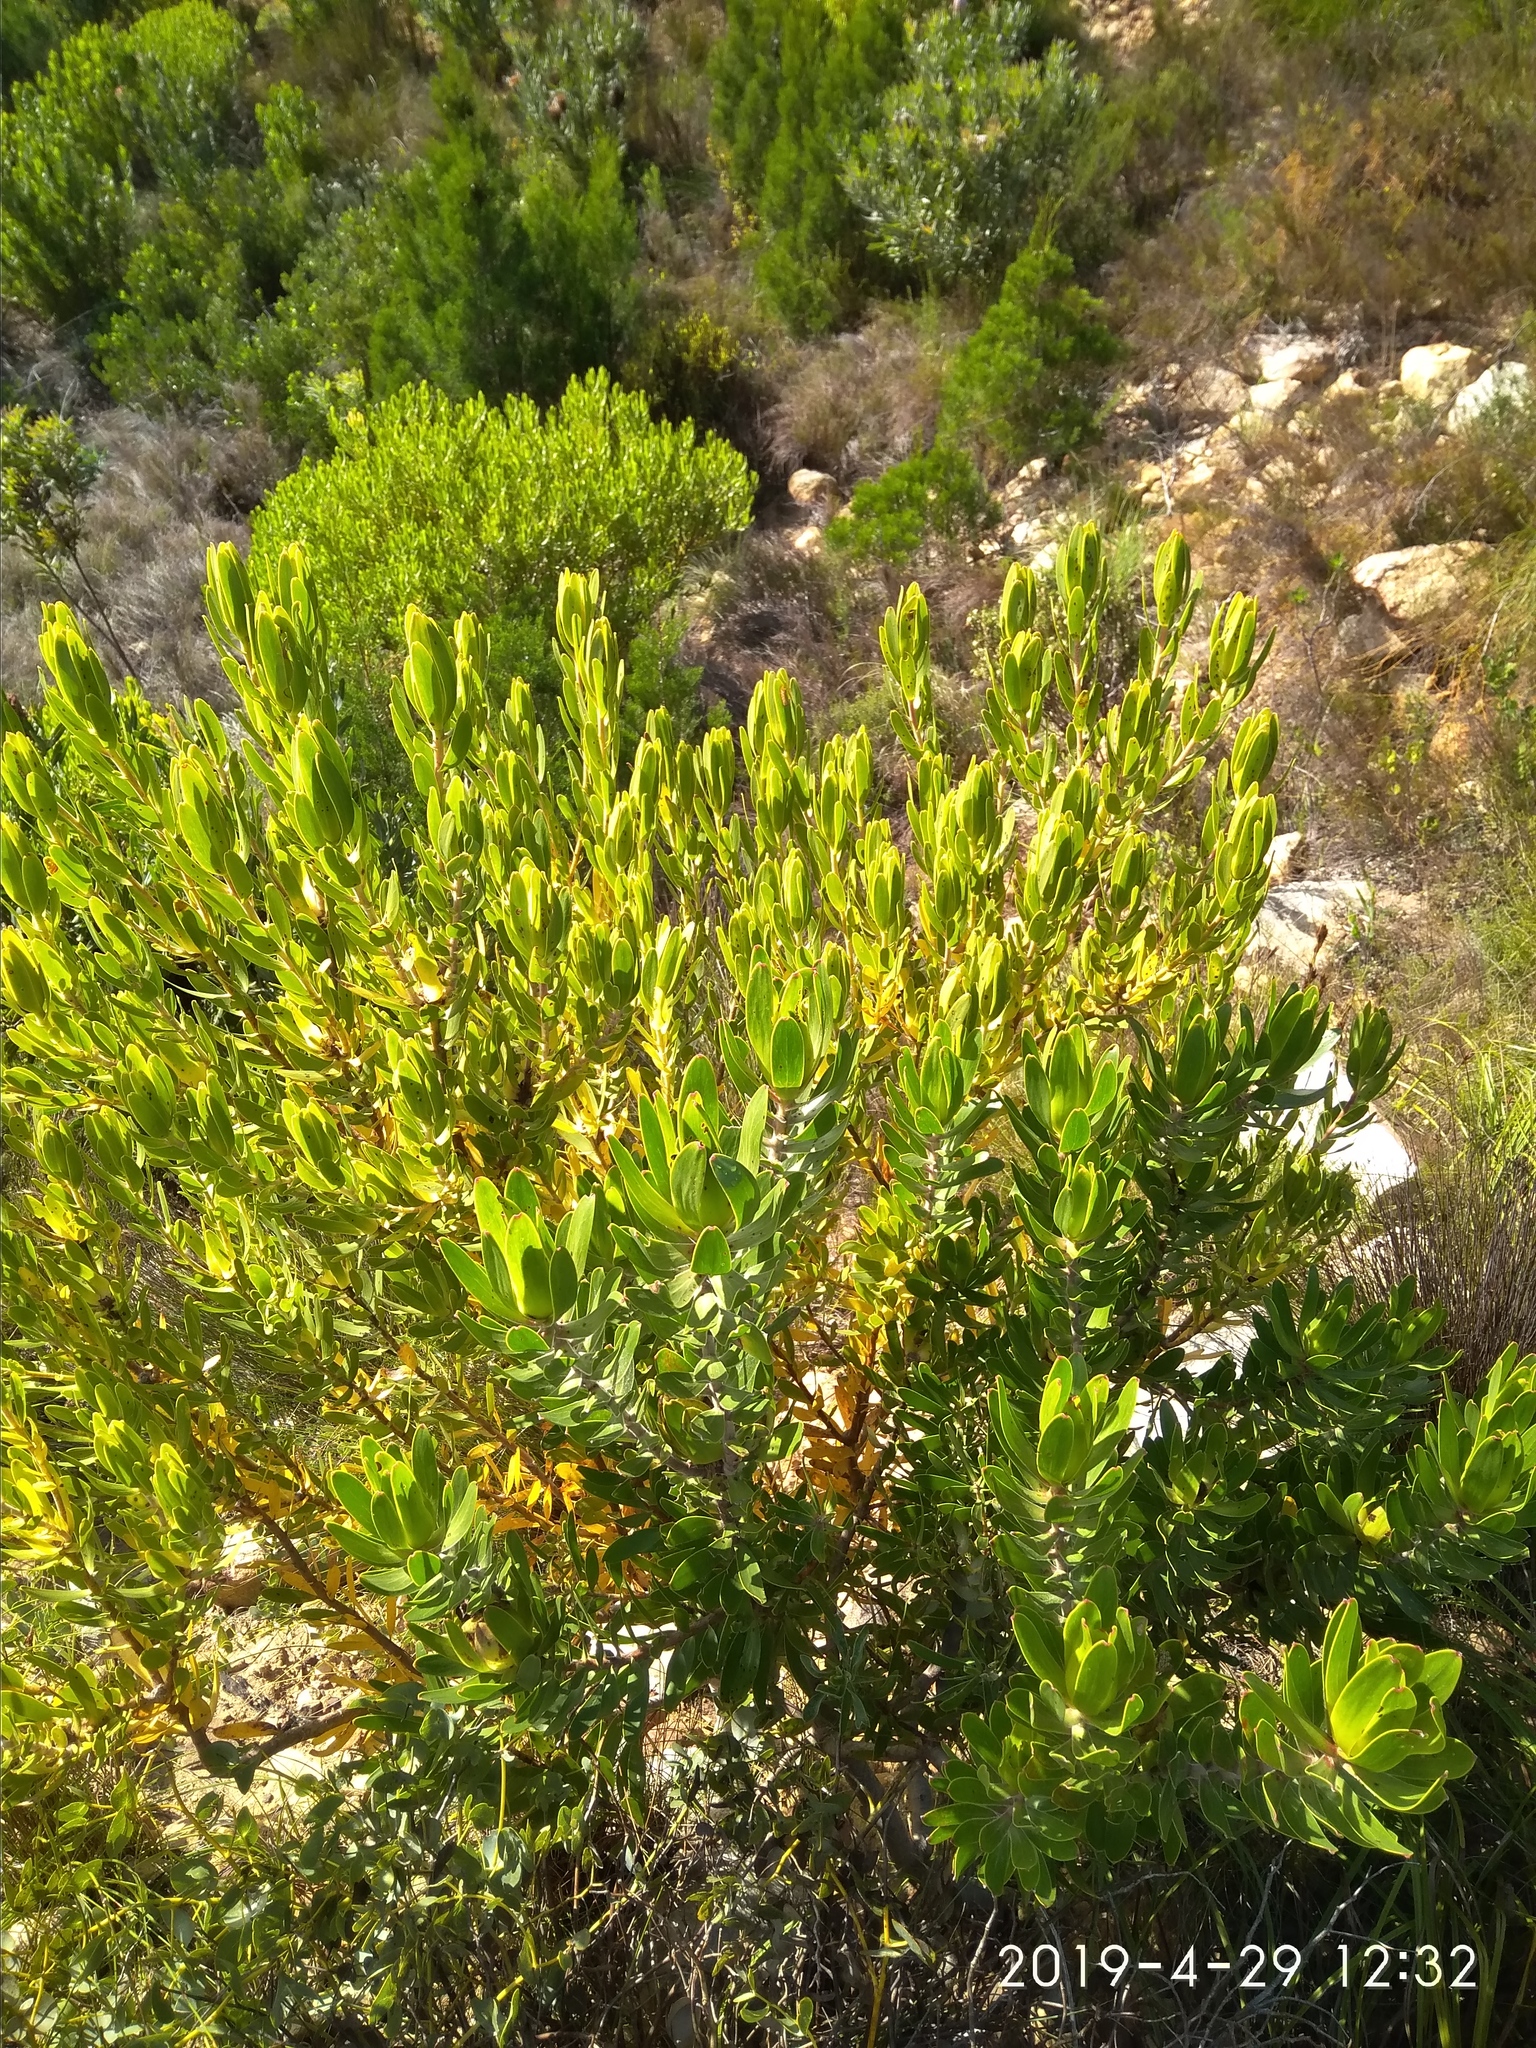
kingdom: Plantae
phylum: Tracheophyta
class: Magnoliopsida
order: Proteales
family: Proteaceae
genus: Leucadendron
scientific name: Leucadendron laureolum
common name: Golden sunshinebush
